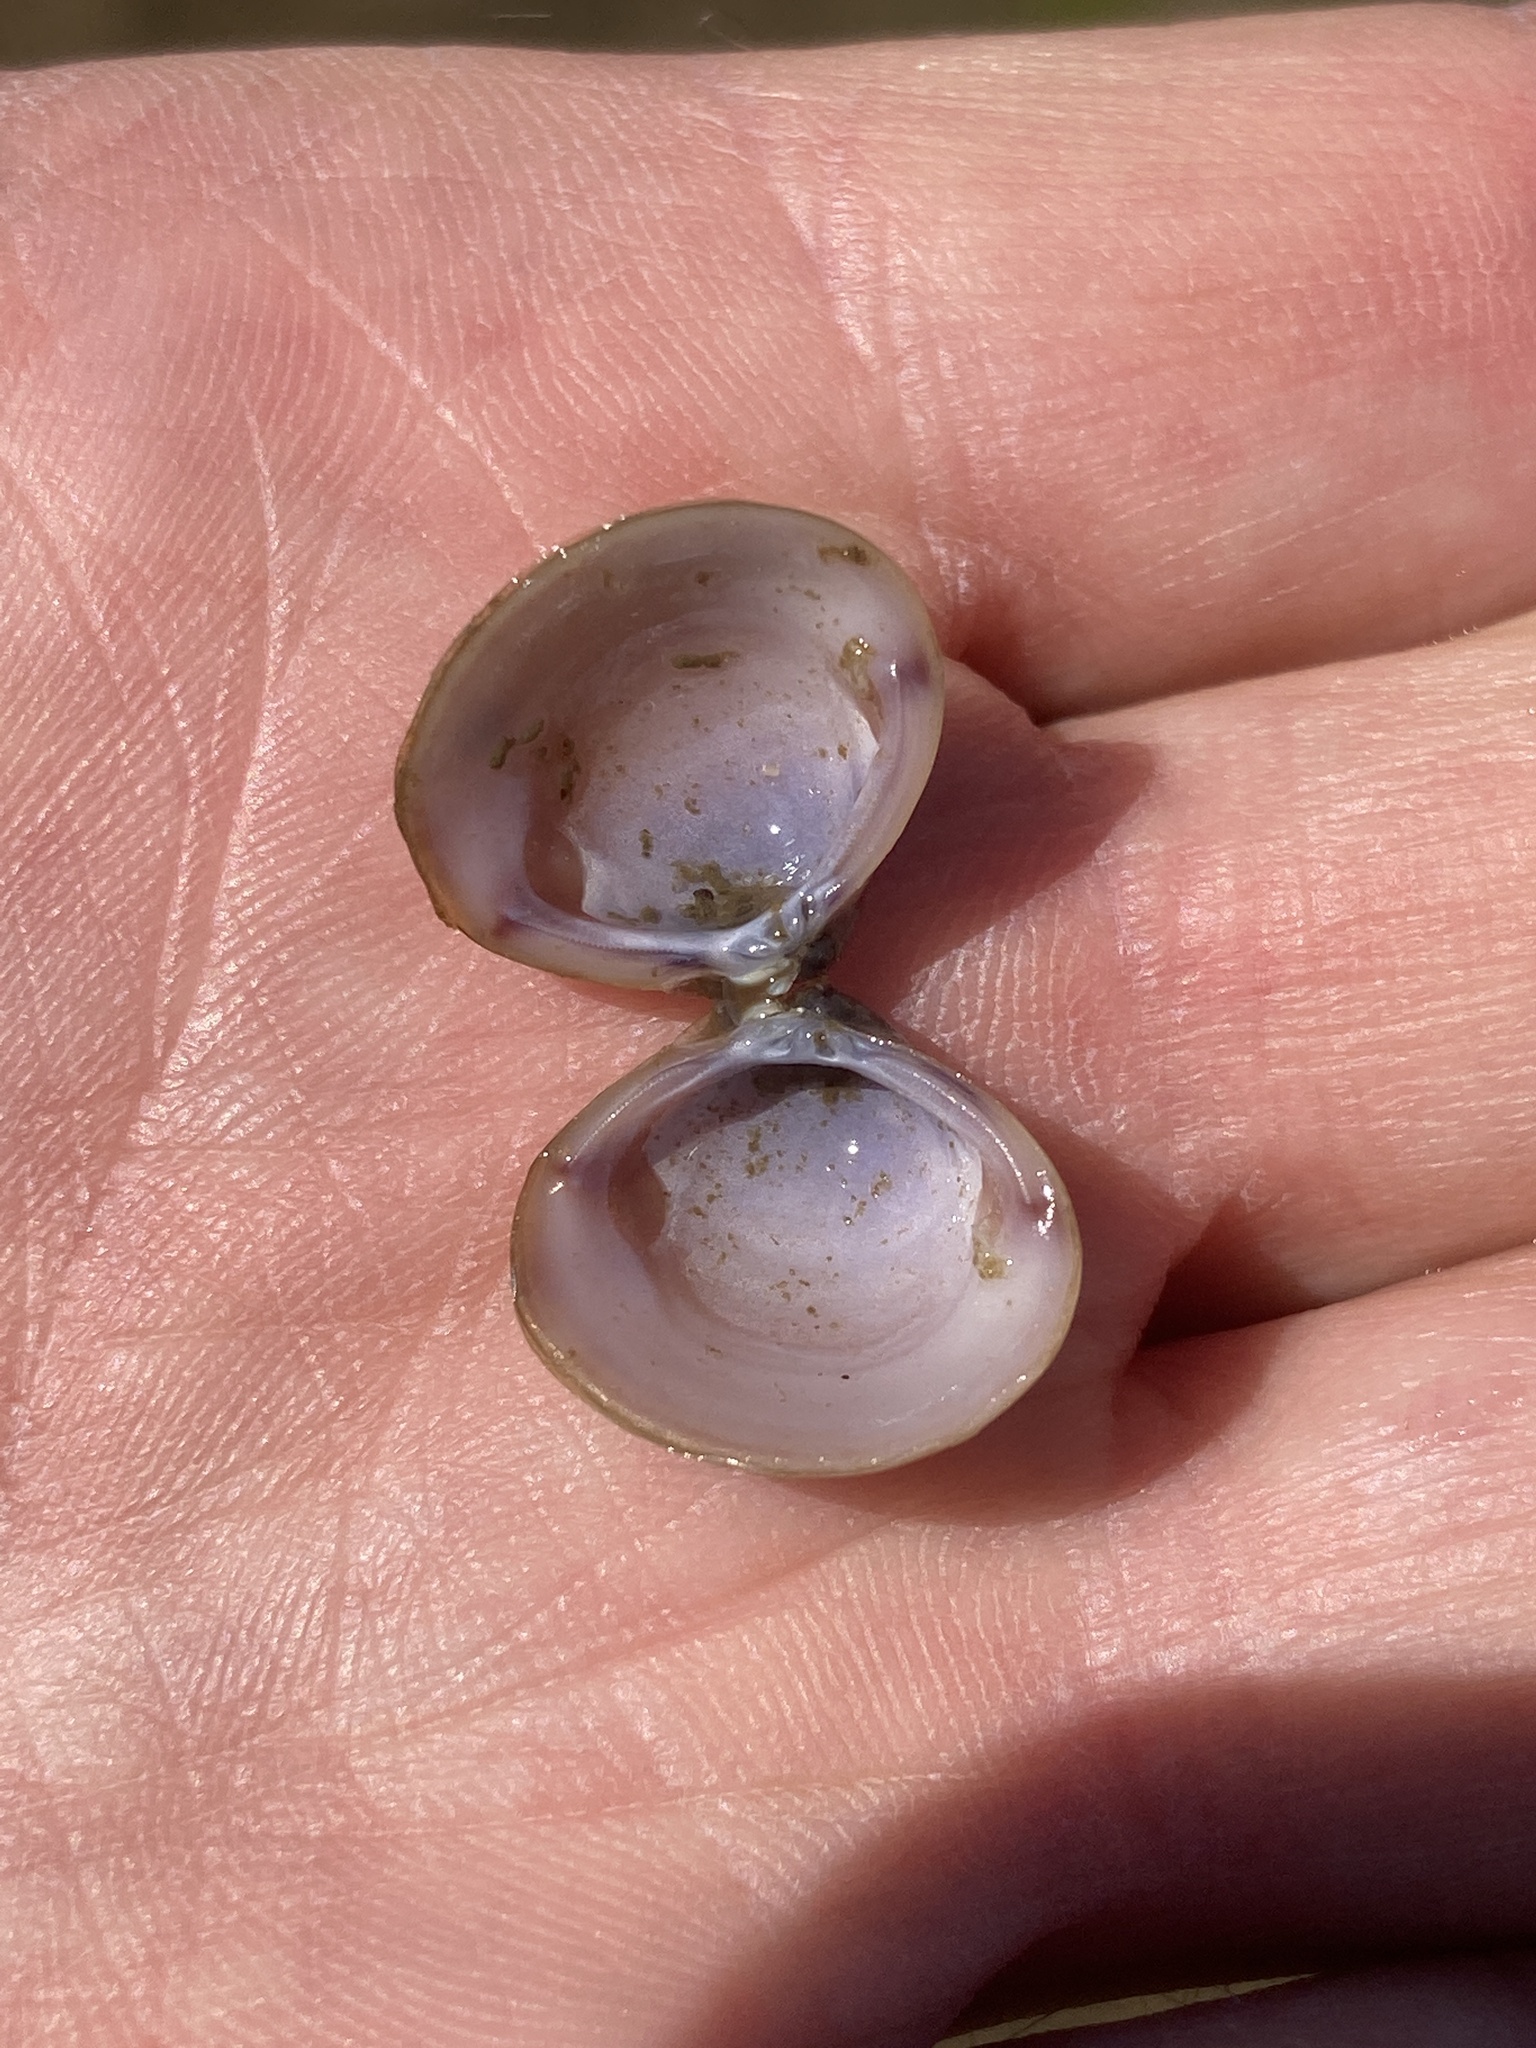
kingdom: Animalia
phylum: Mollusca
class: Bivalvia
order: Venerida
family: Cyrenidae
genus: Corbicula
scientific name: Corbicula fluminea
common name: Asian clam
